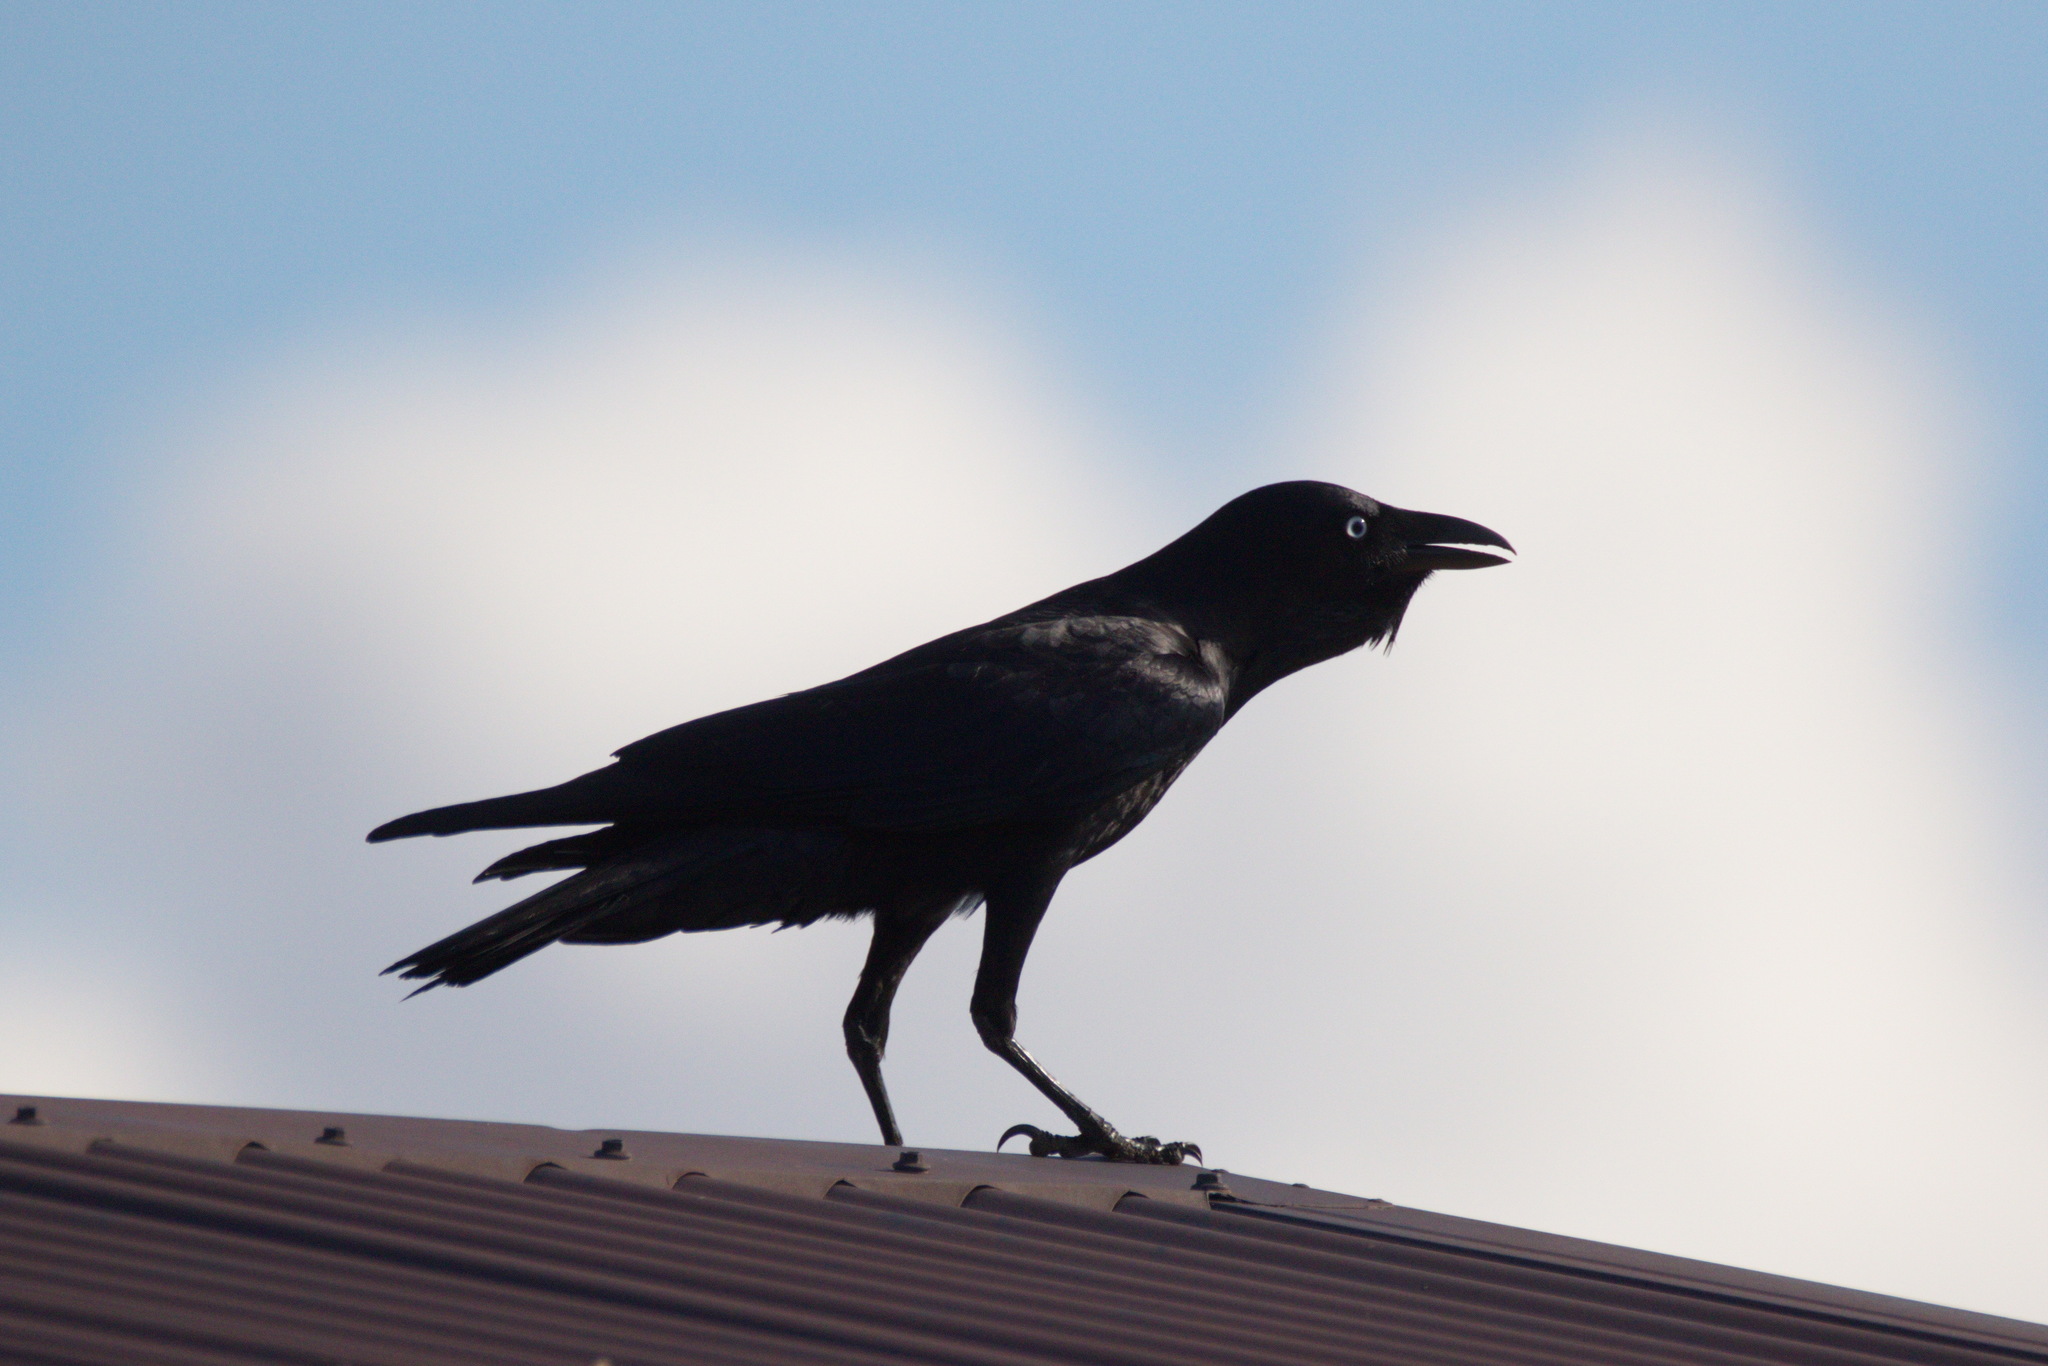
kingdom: Animalia
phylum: Chordata
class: Aves
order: Passeriformes
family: Corvidae
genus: Corvus
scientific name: Corvus orru
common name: Torresian crow
